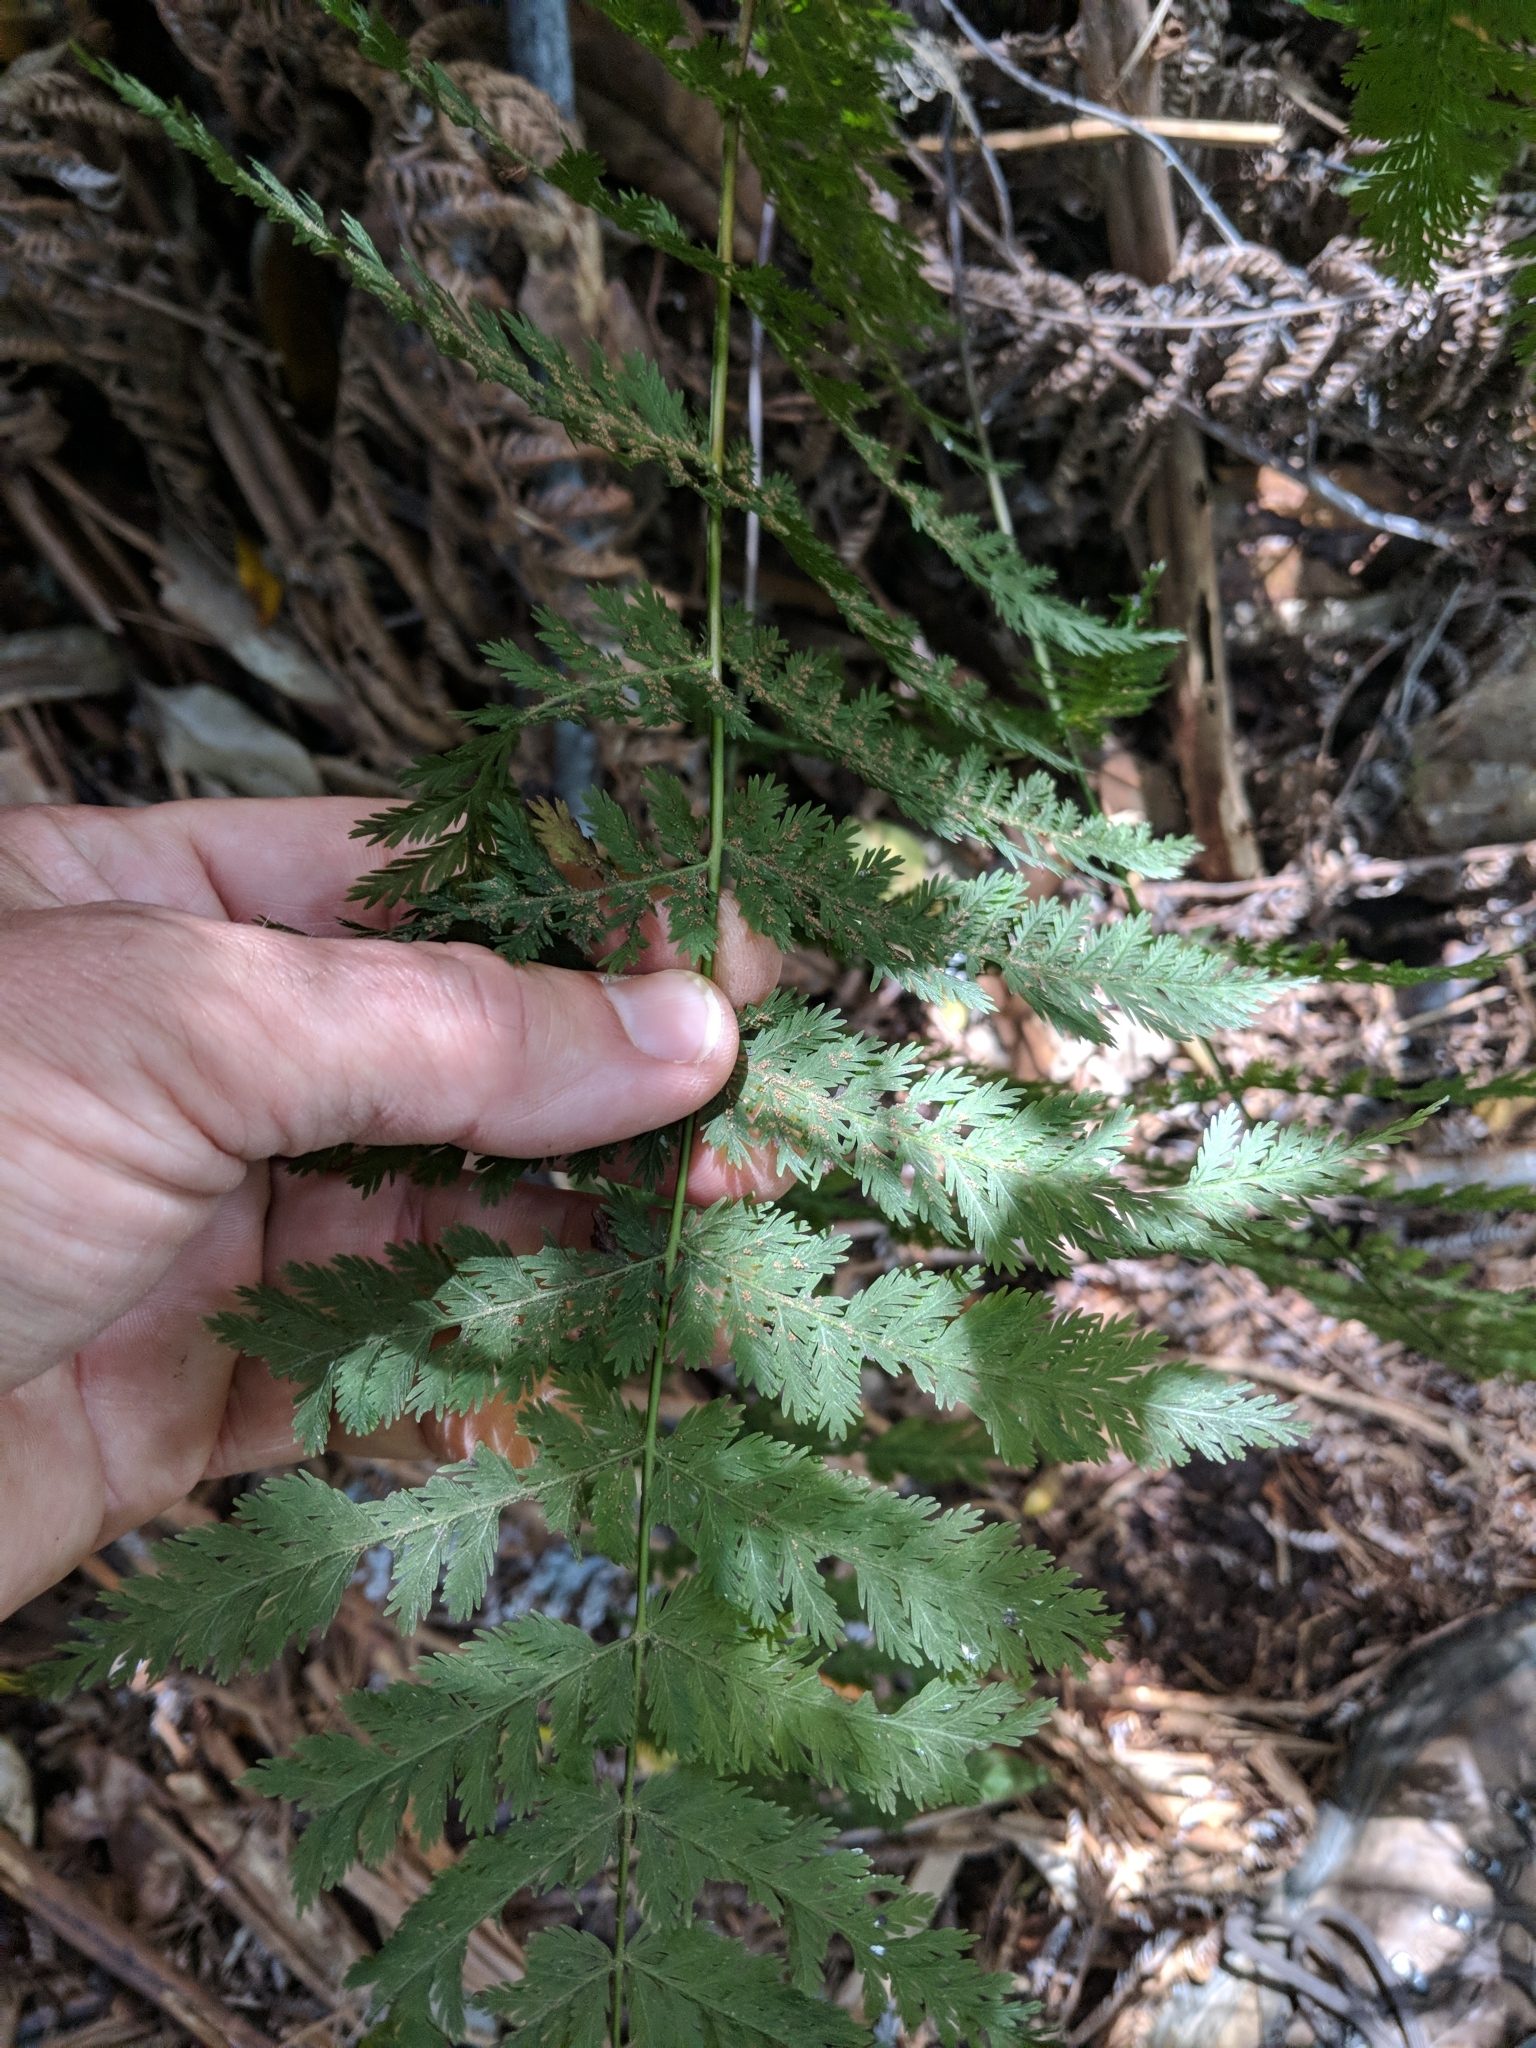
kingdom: Plantae
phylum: Tracheophyta
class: Polypodiopsida
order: Osmundales
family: Osmundaceae
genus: Leptopteris
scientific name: Leptopteris hymenophylloides
